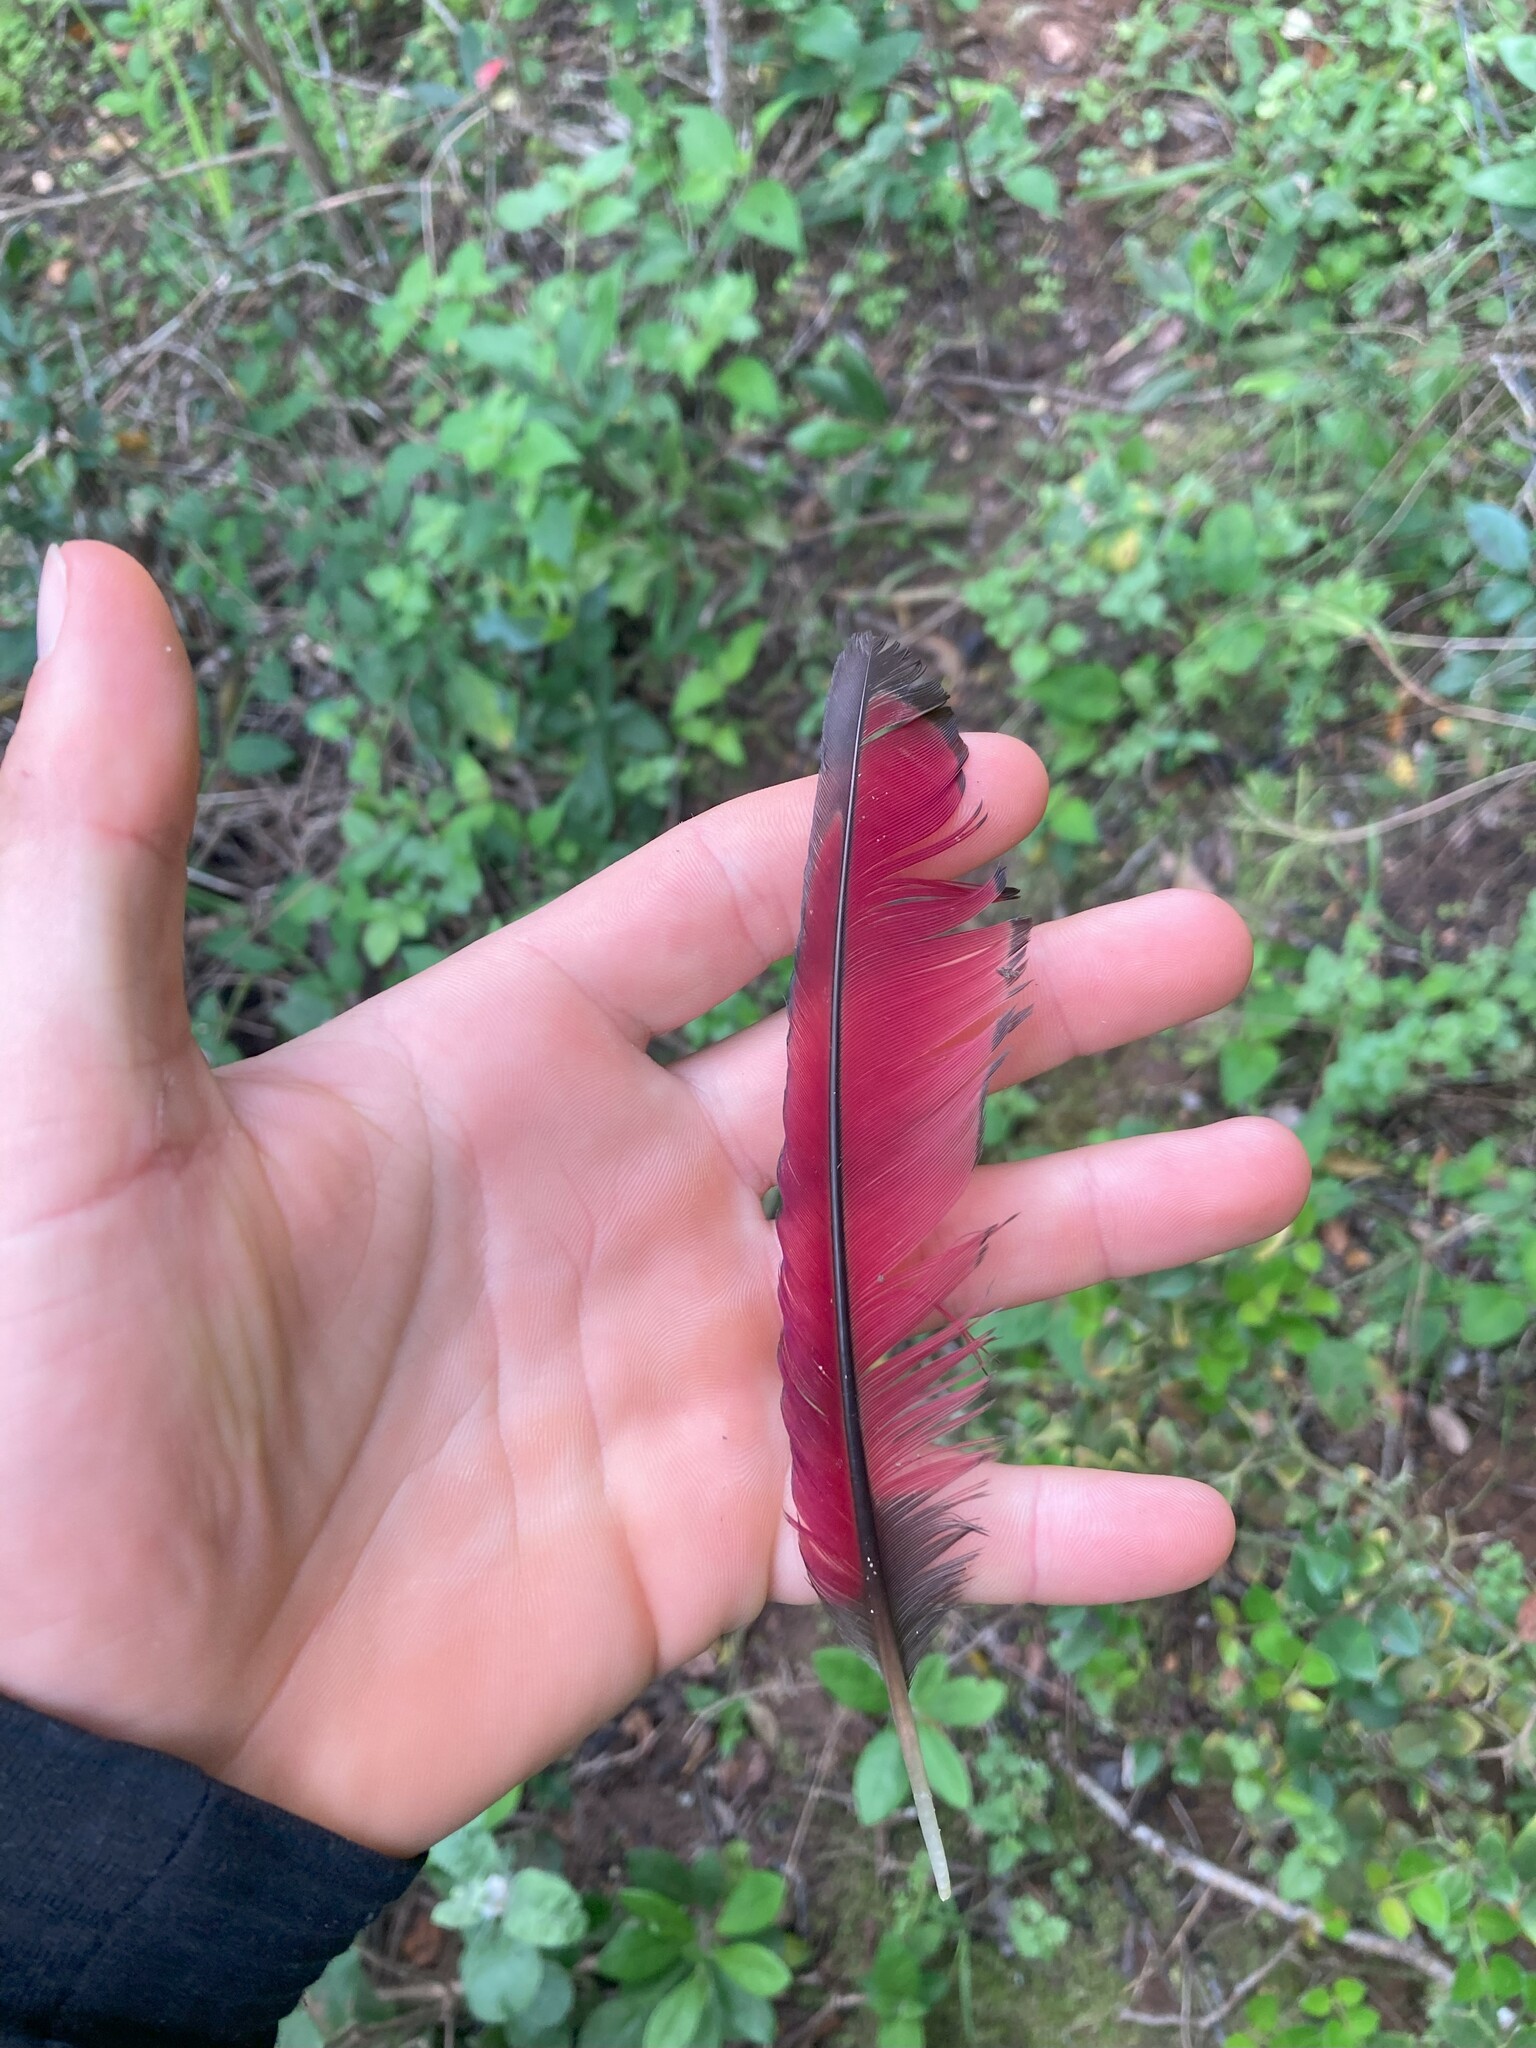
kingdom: Animalia
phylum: Chordata
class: Aves
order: Musophagiformes
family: Musophagidae
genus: Tauraco
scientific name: Tauraco corythaix
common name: Knysna turaco
